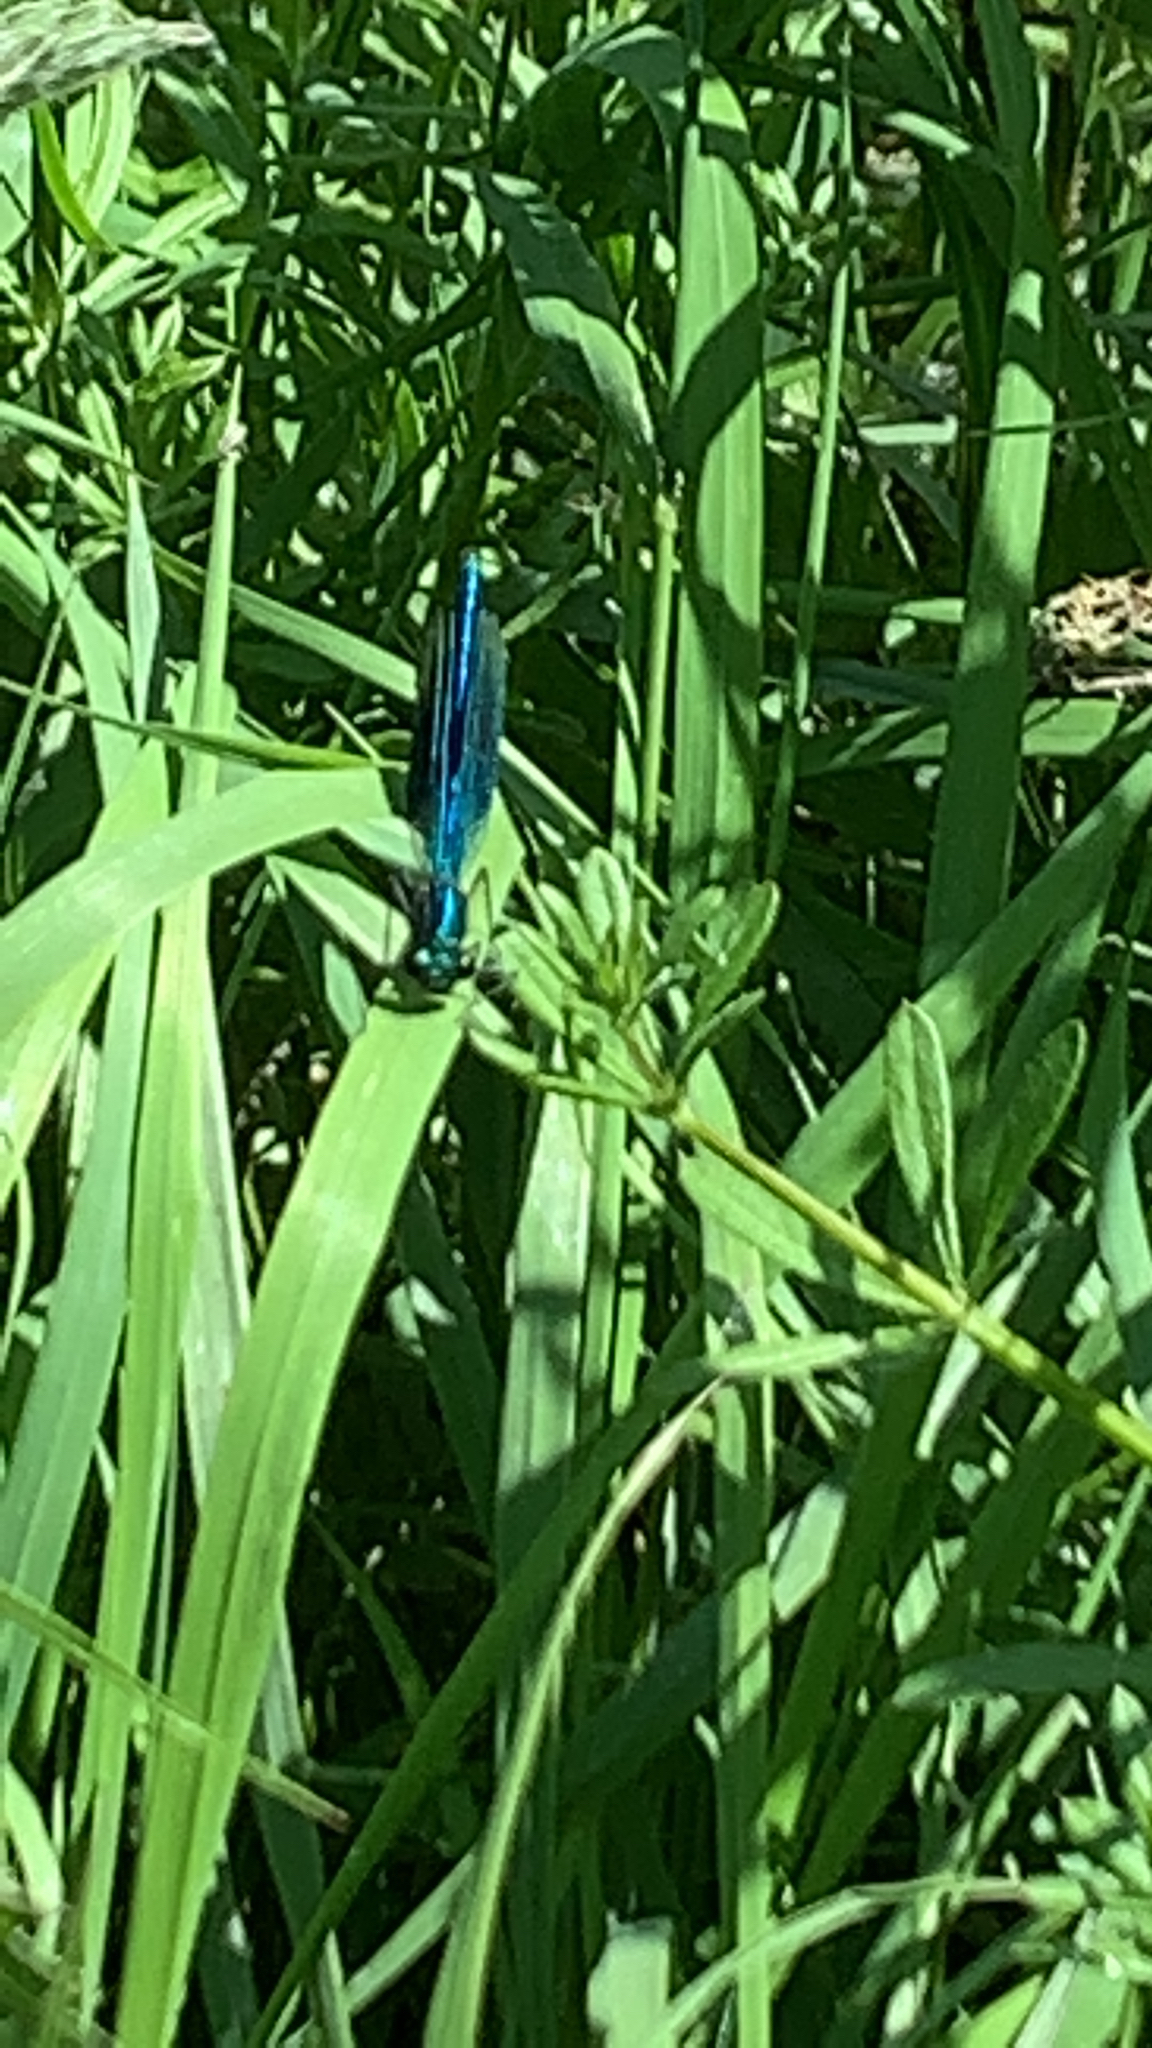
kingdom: Animalia
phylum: Arthropoda
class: Insecta
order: Odonata
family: Calopterygidae
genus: Calopteryx
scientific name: Calopteryx splendens
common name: Banded demoiselle
